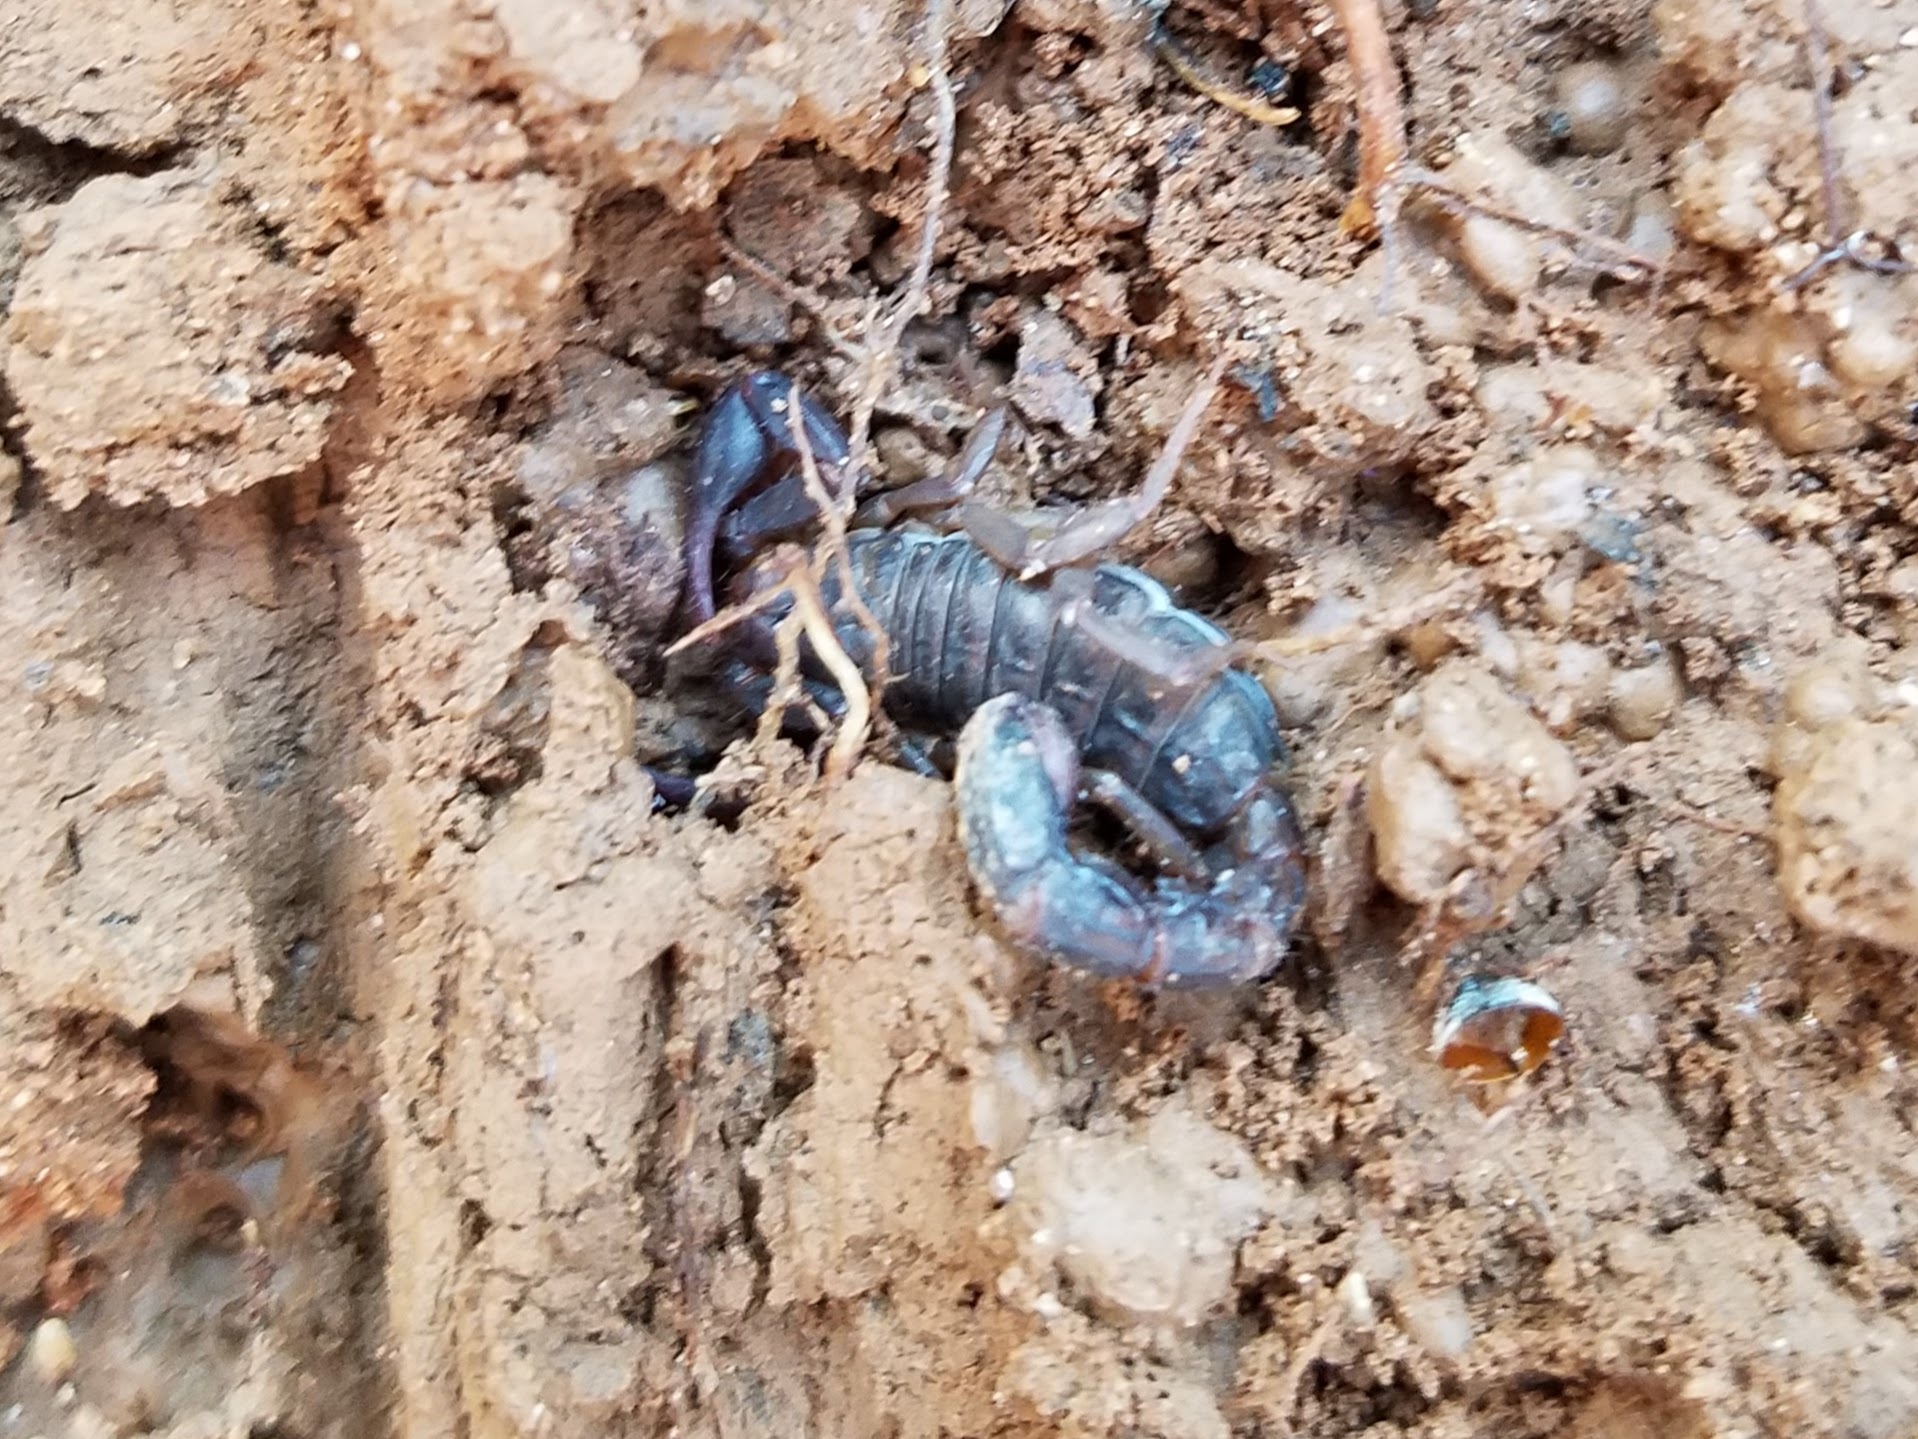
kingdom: Animalia
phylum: Arthropoda
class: Arachnida
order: Scorpiones
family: Vaejovidae
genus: Vaejovis
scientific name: Vaejovis carolinianus
